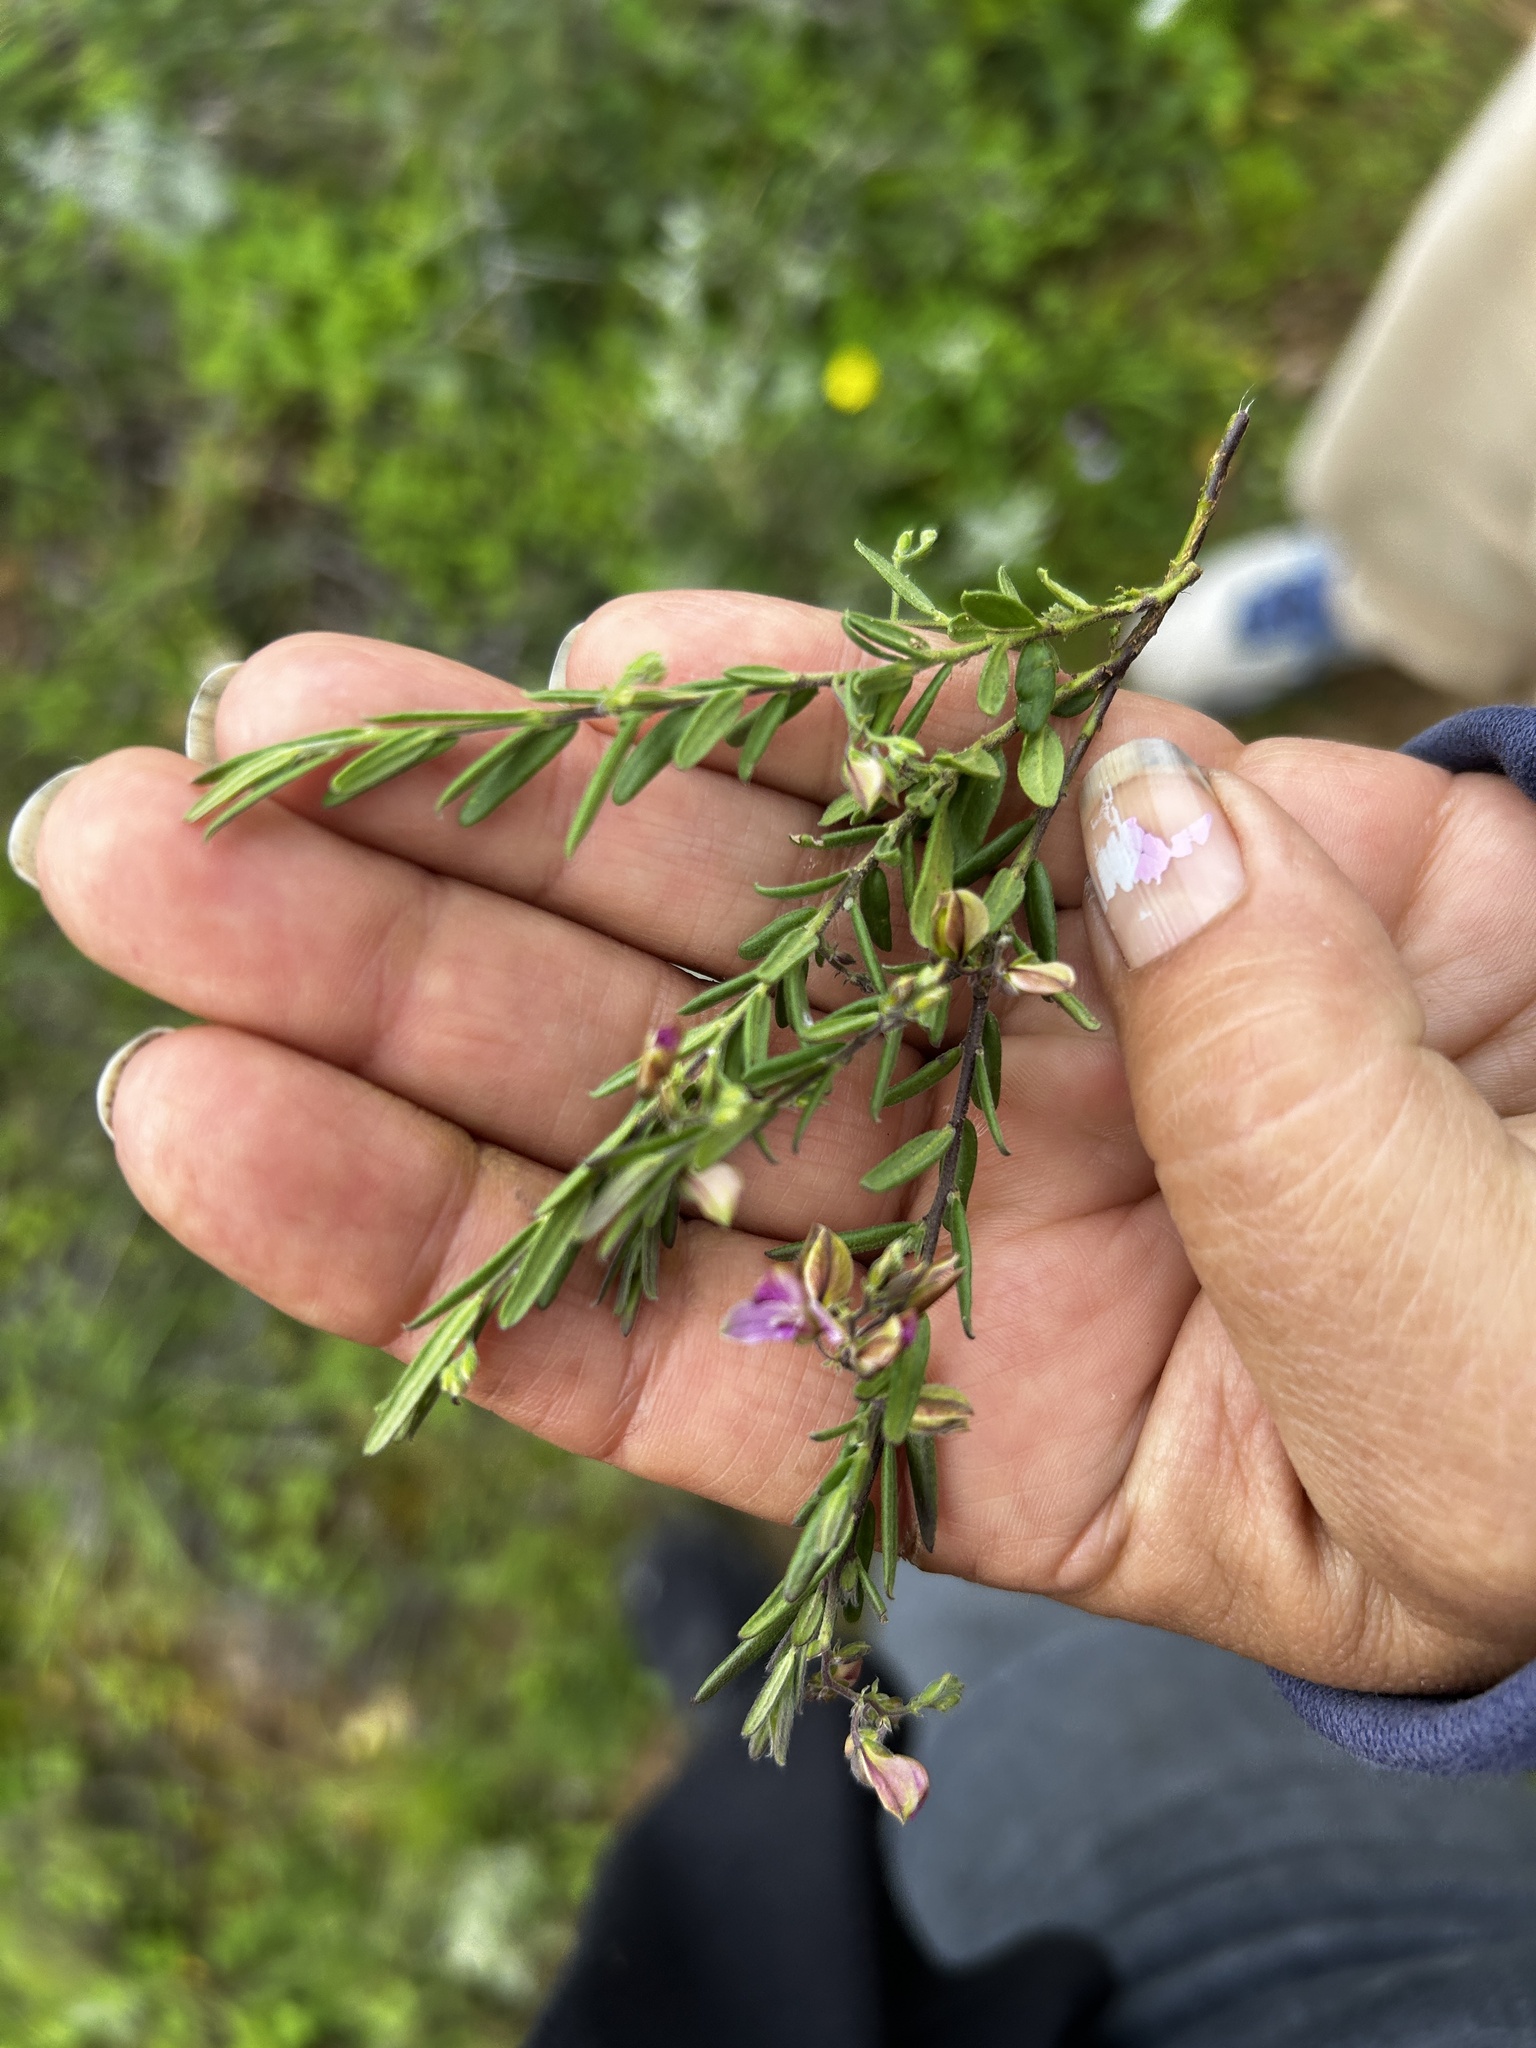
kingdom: Plantae
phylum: Tracheophyta
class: Magnoliopsida
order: Fabales
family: Polygalaceae
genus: Polygala
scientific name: Polygala scabra
